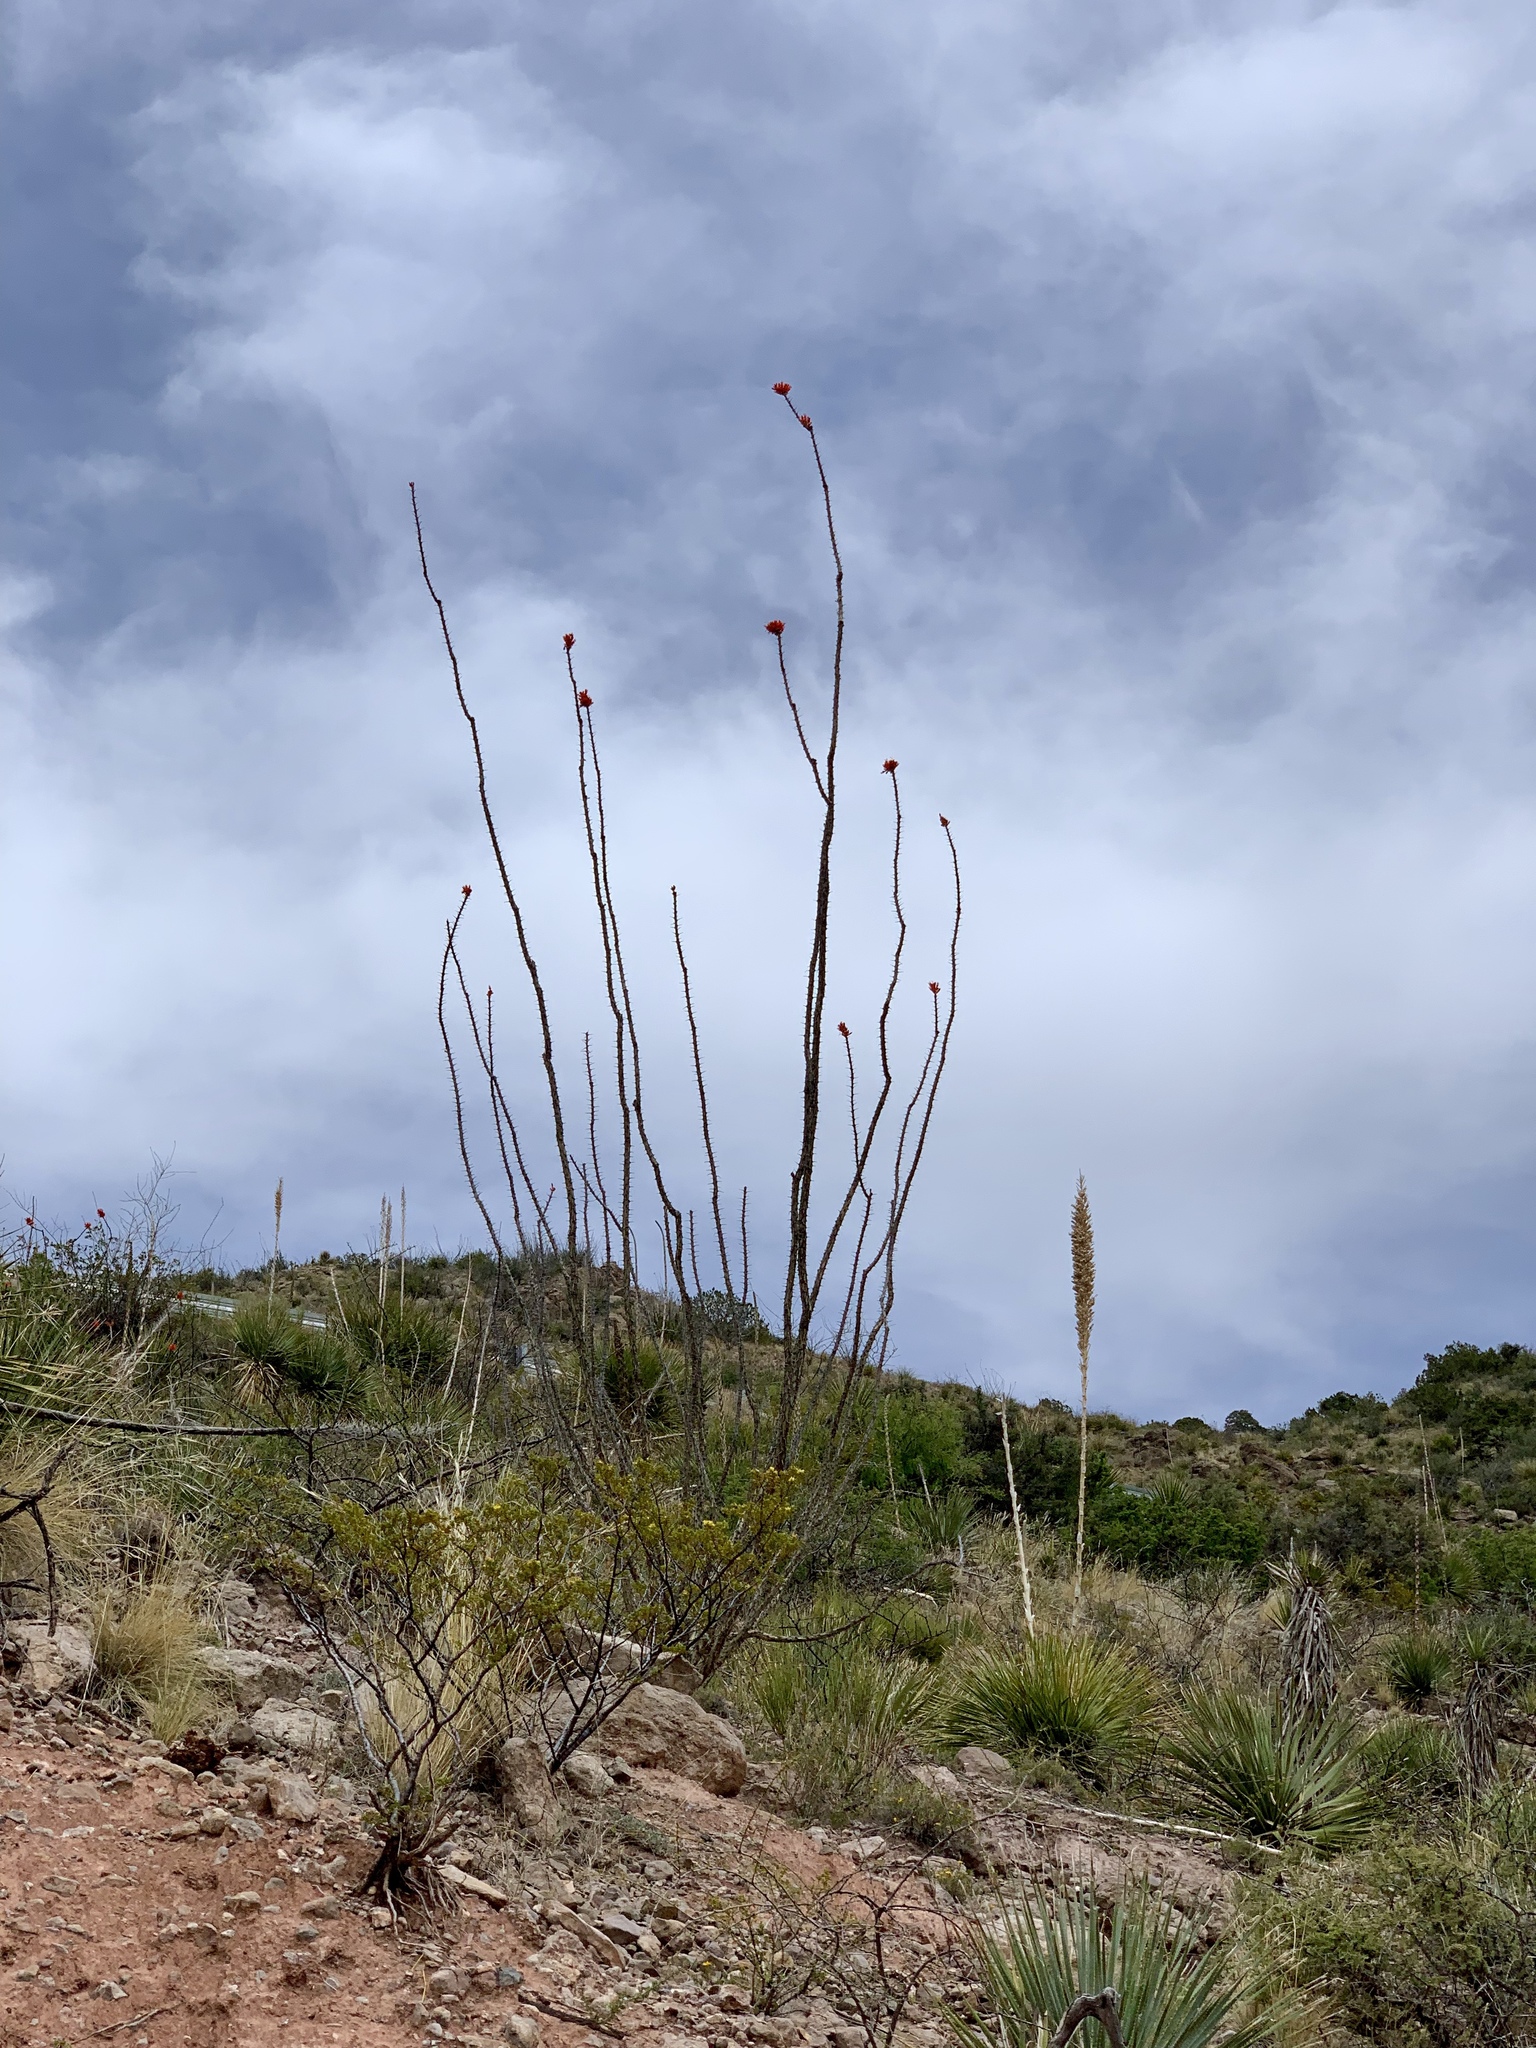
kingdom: Plantae
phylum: Tracheophyta
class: Magnoliopsida
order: Ericales
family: Fouquieriaceae
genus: Fouquieria
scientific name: Fouquieria splendens
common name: Vine-cactus
